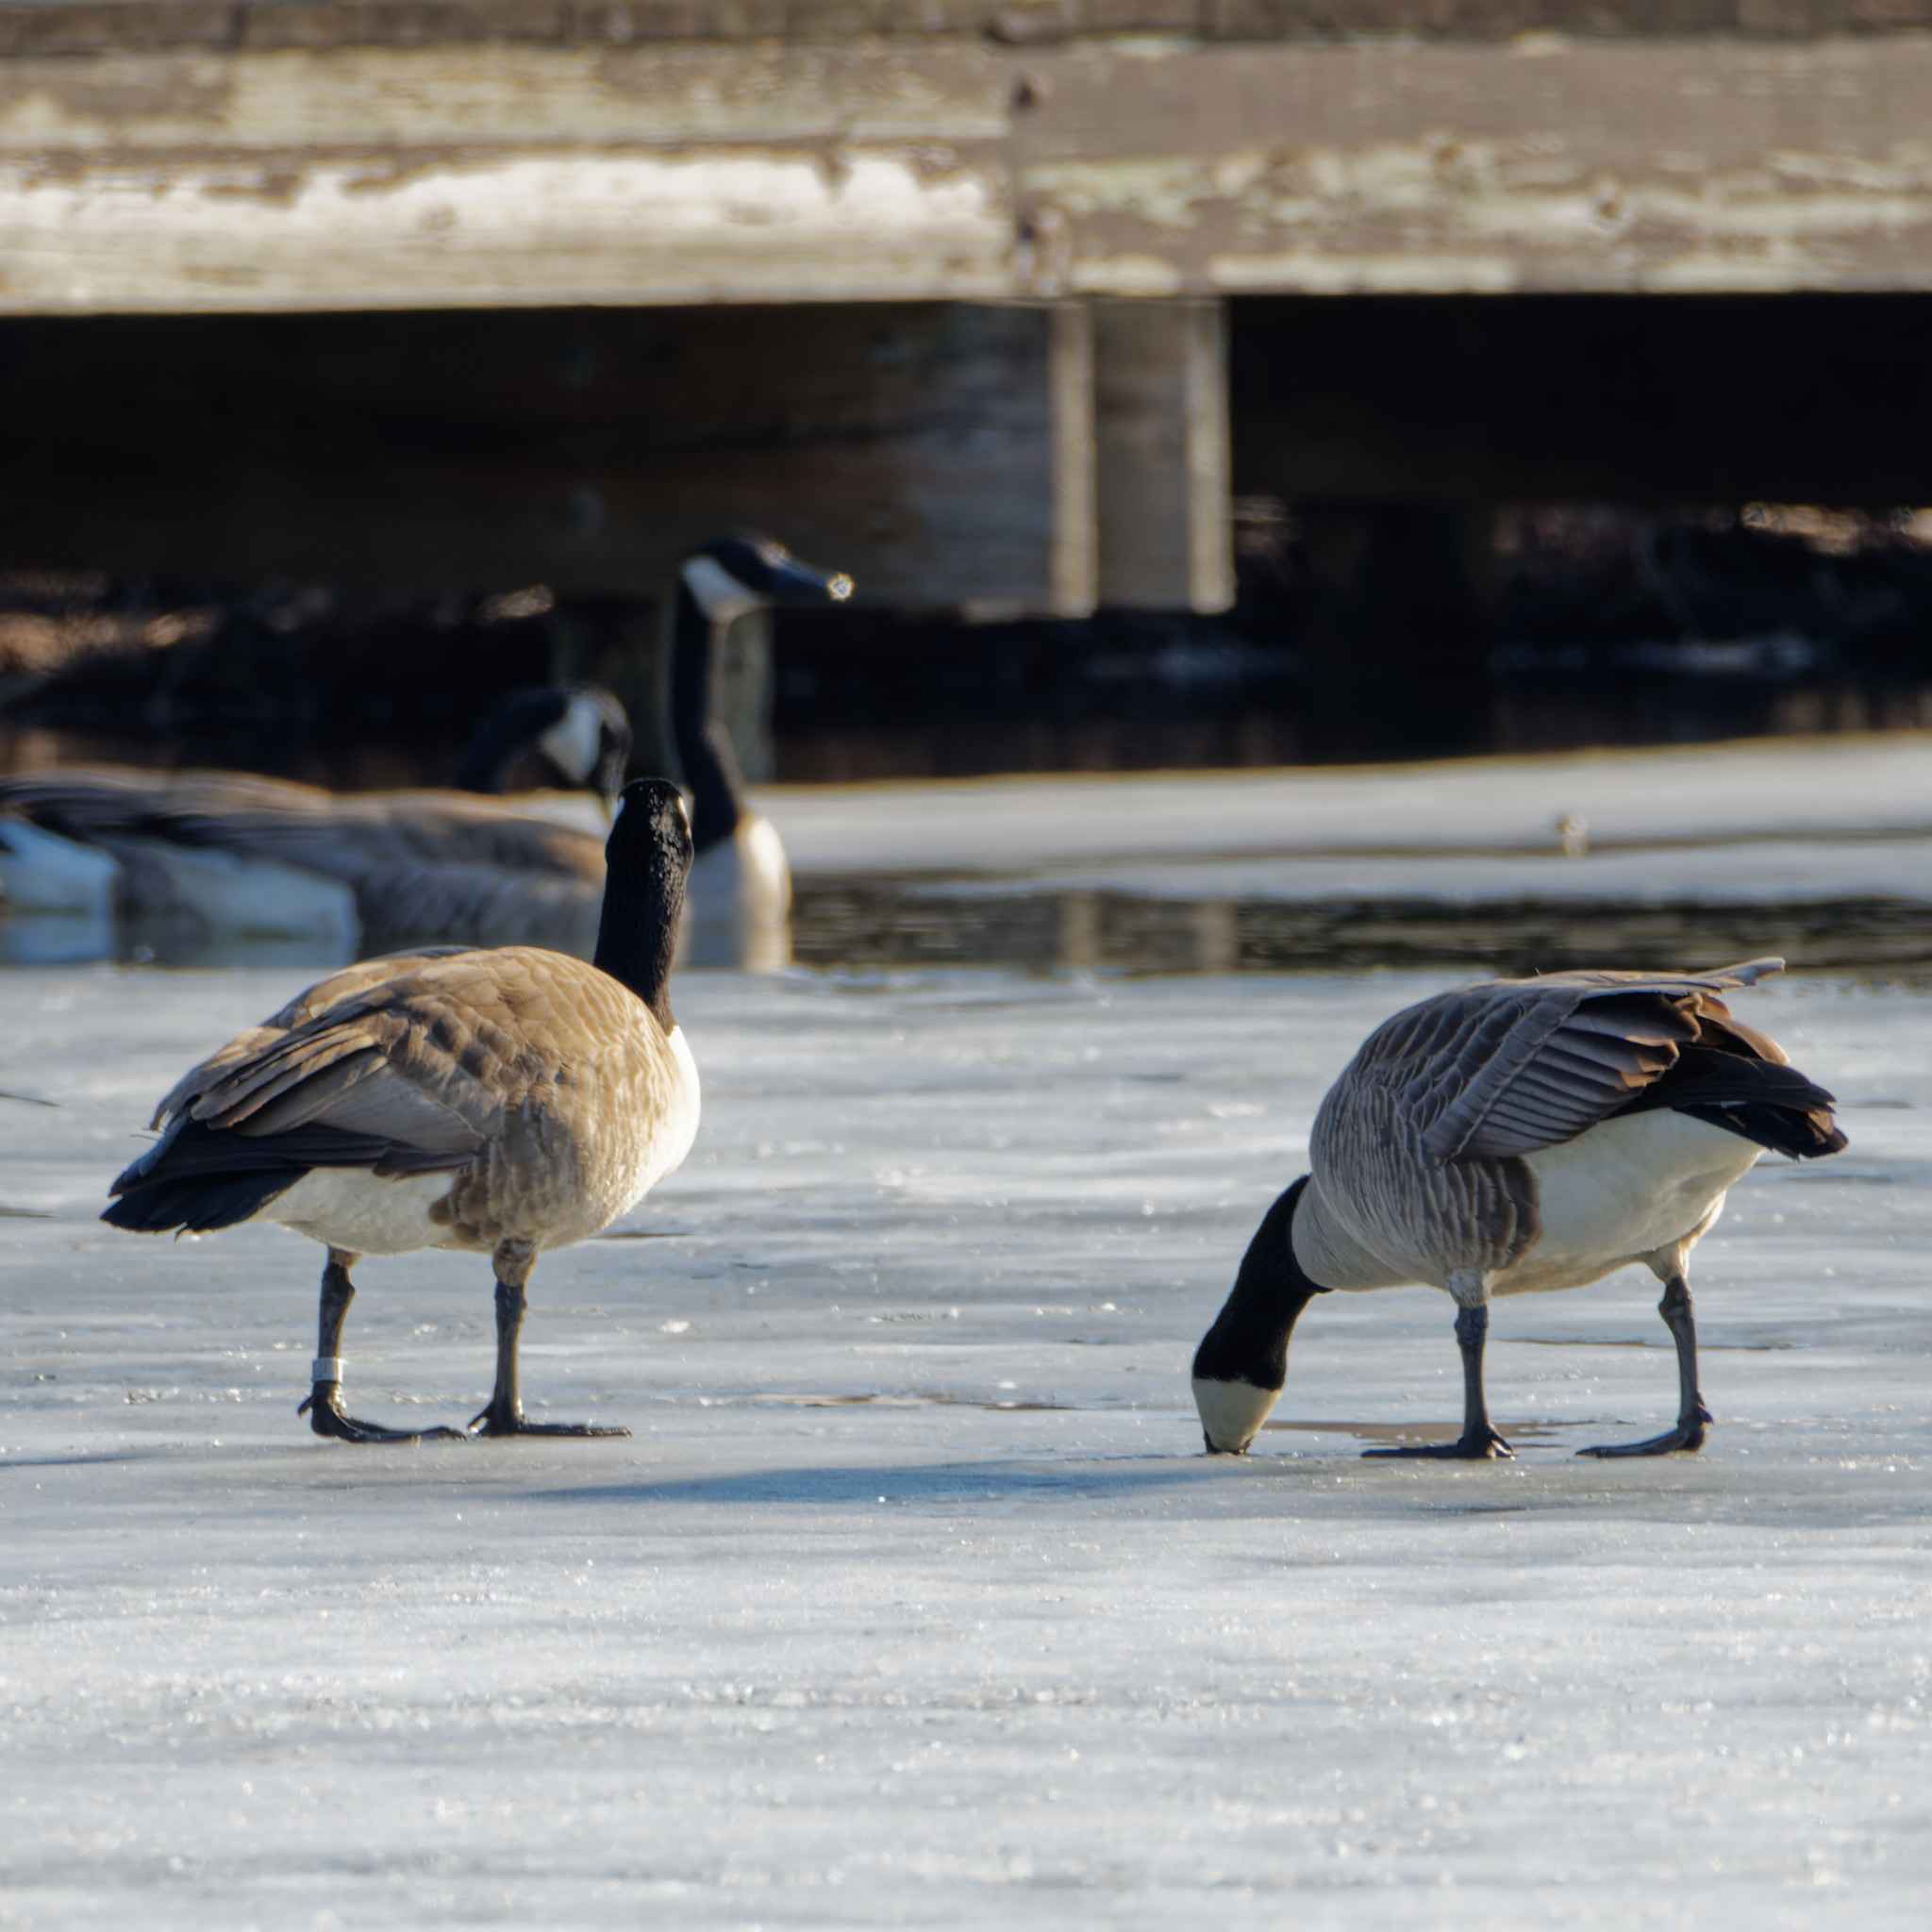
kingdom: Animalia
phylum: Chordata
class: Aves
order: Anseriformes
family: Anatidae
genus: Branta
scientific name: Branta canadensis
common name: Canada goose
